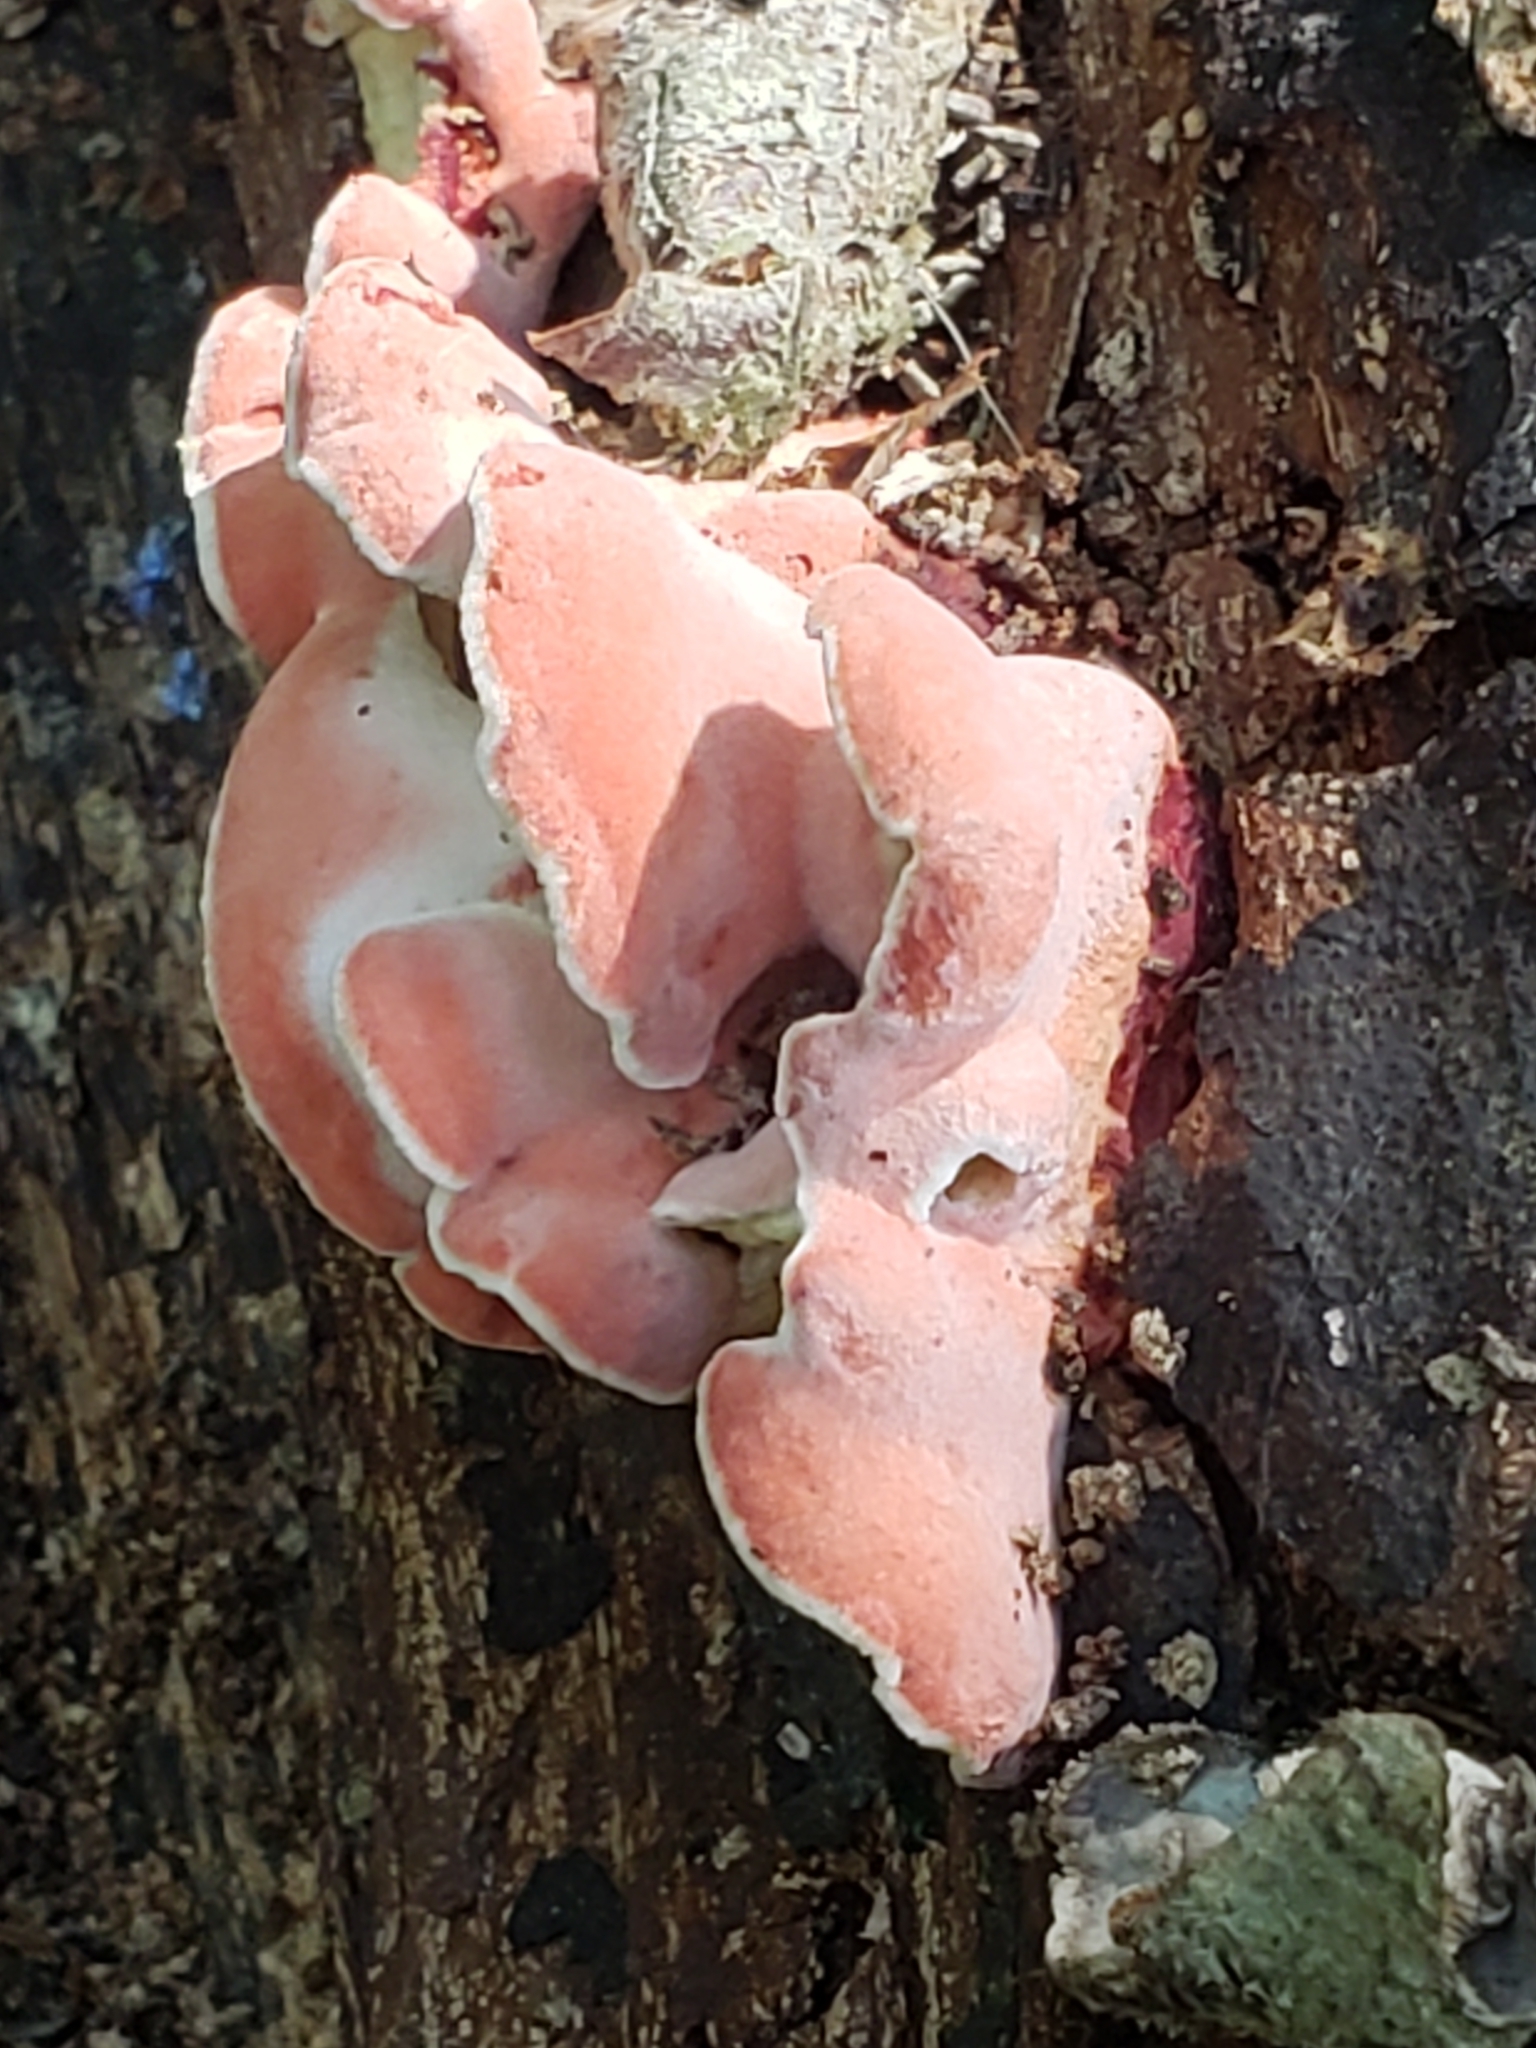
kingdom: Fungi
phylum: Basidiomycota
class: Agaricomycetes
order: Polyporales
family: Irpicaceae
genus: Byssomerulius
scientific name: Byssomerulius incarnatus
